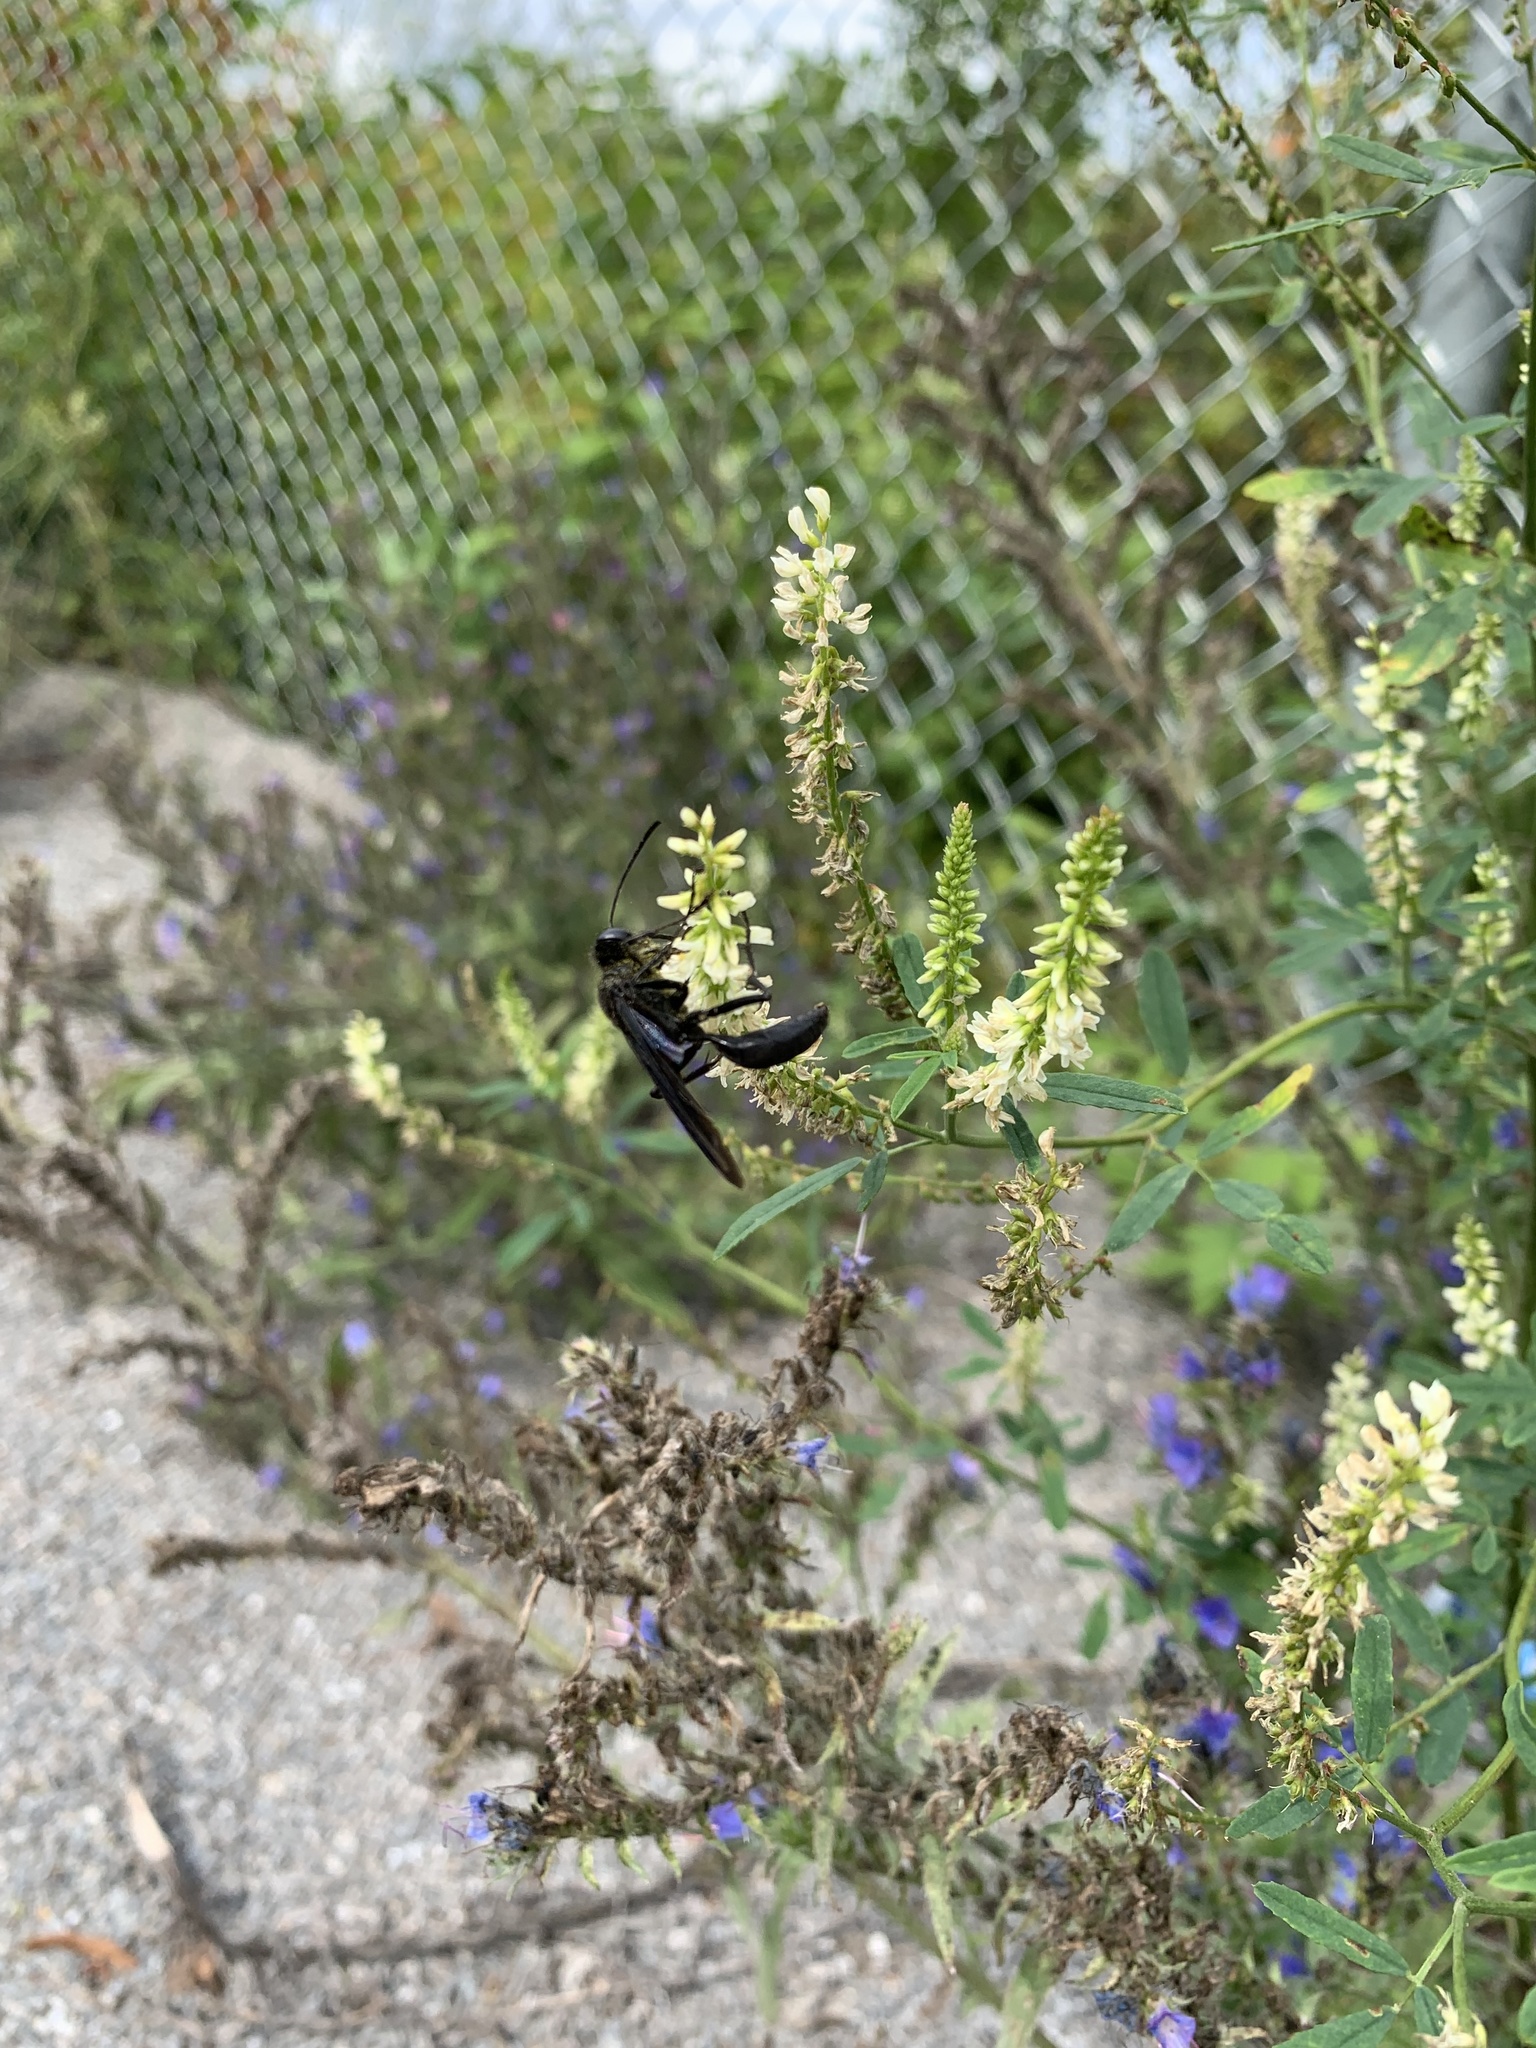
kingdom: Animalia
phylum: Arthropoda
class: Insecta
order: Hymenoptera
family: Sphecidae
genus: Sphex
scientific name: Sphex pensylvanicus
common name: Great black digger wasp
